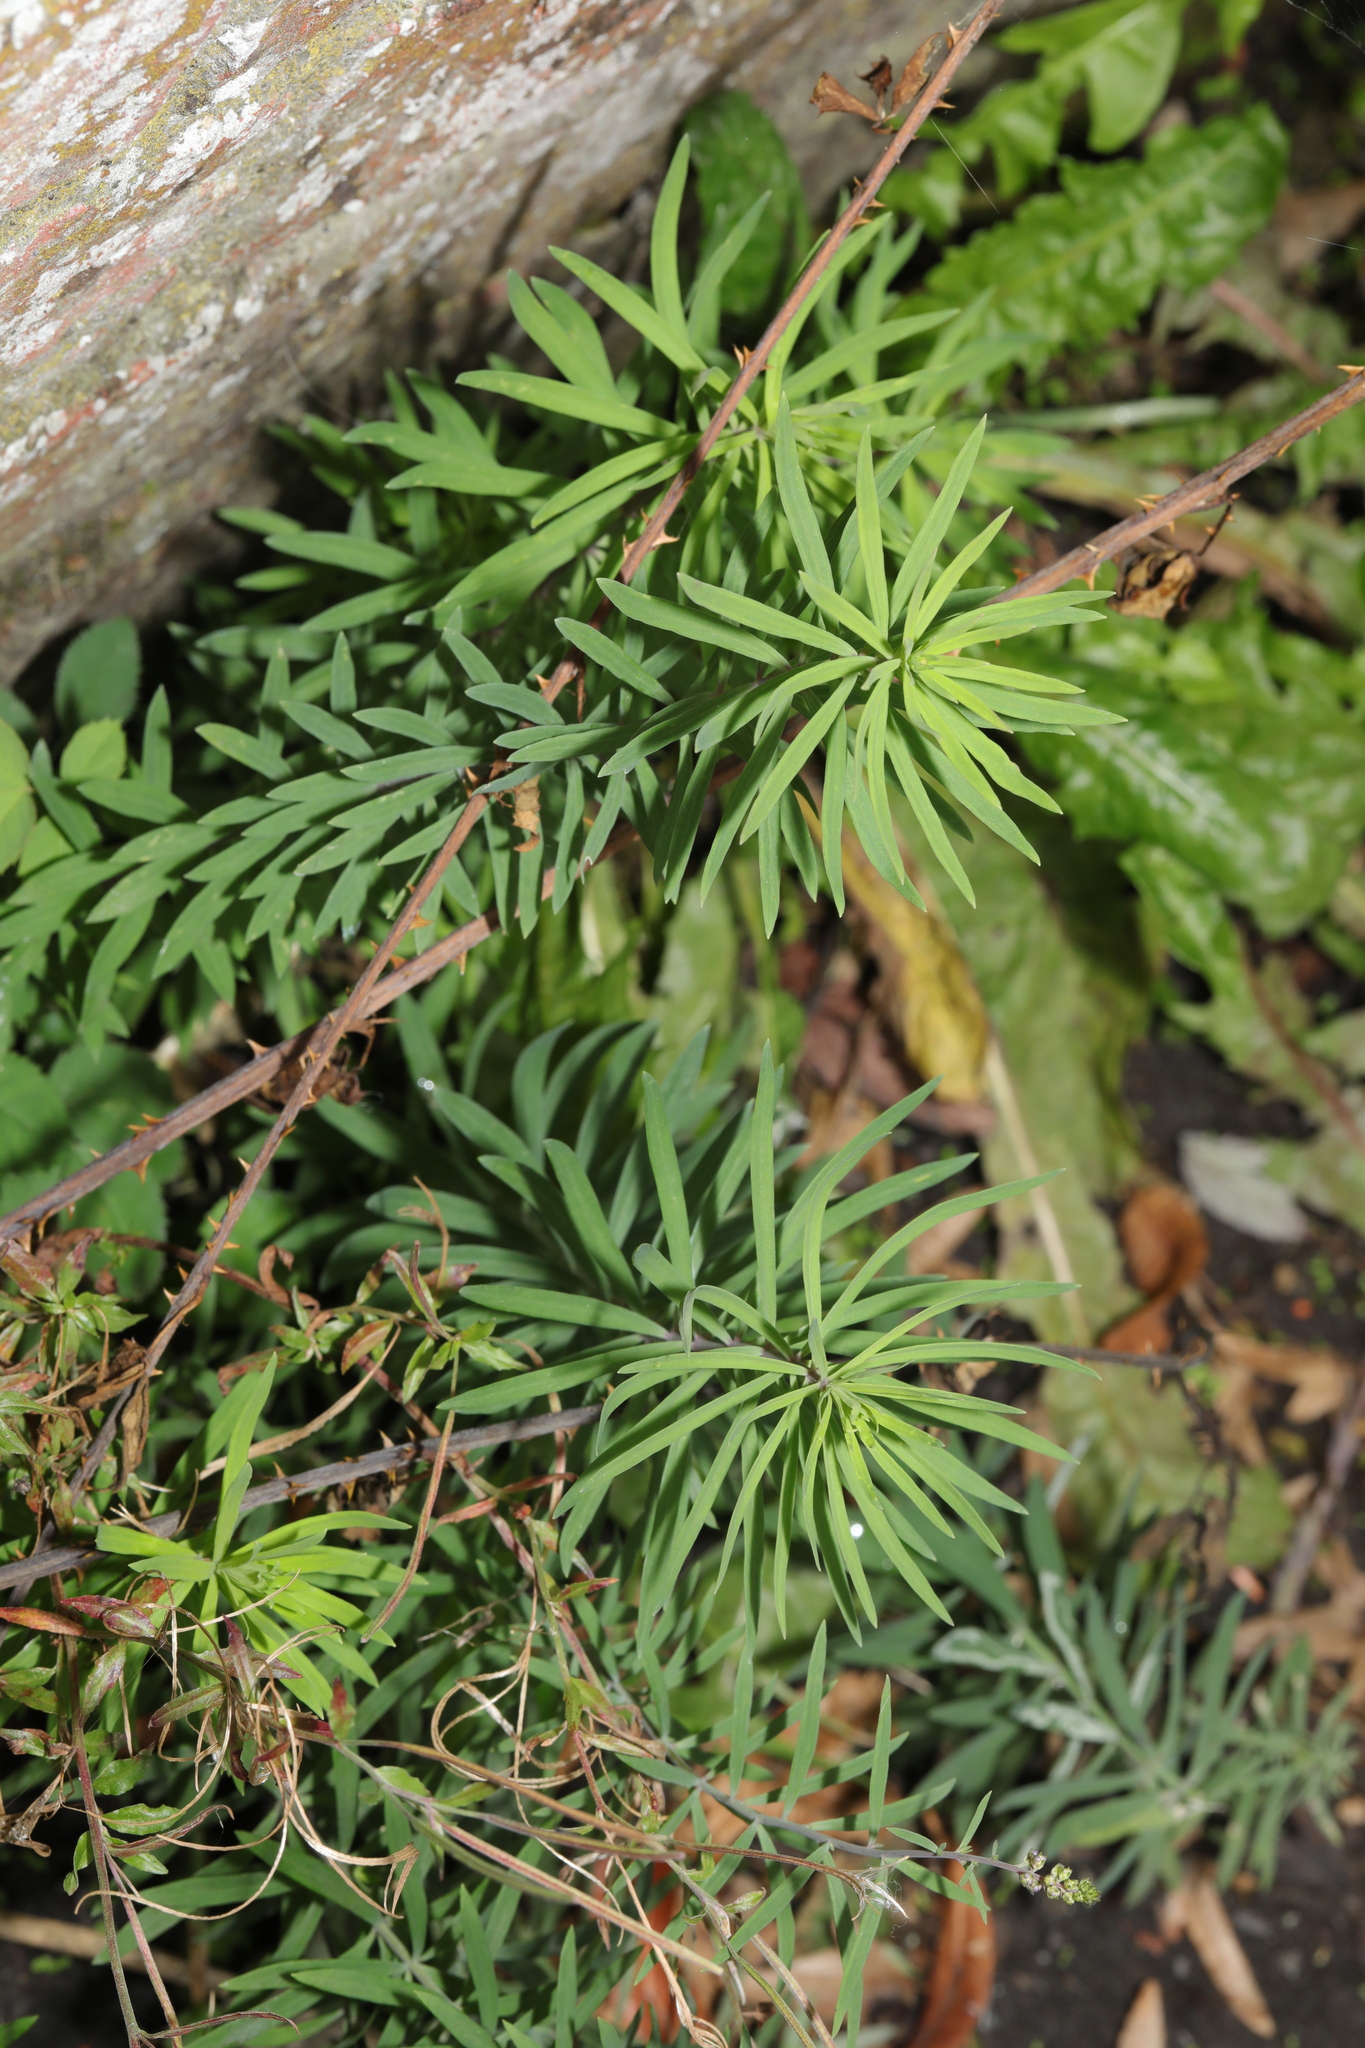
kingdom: Plantae
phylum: Tracheophyta
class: Magnoliopsida
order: Lamiales
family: Plantaginaceae
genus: Linaria
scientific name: Linaria purpurea
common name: Purple toadflax
